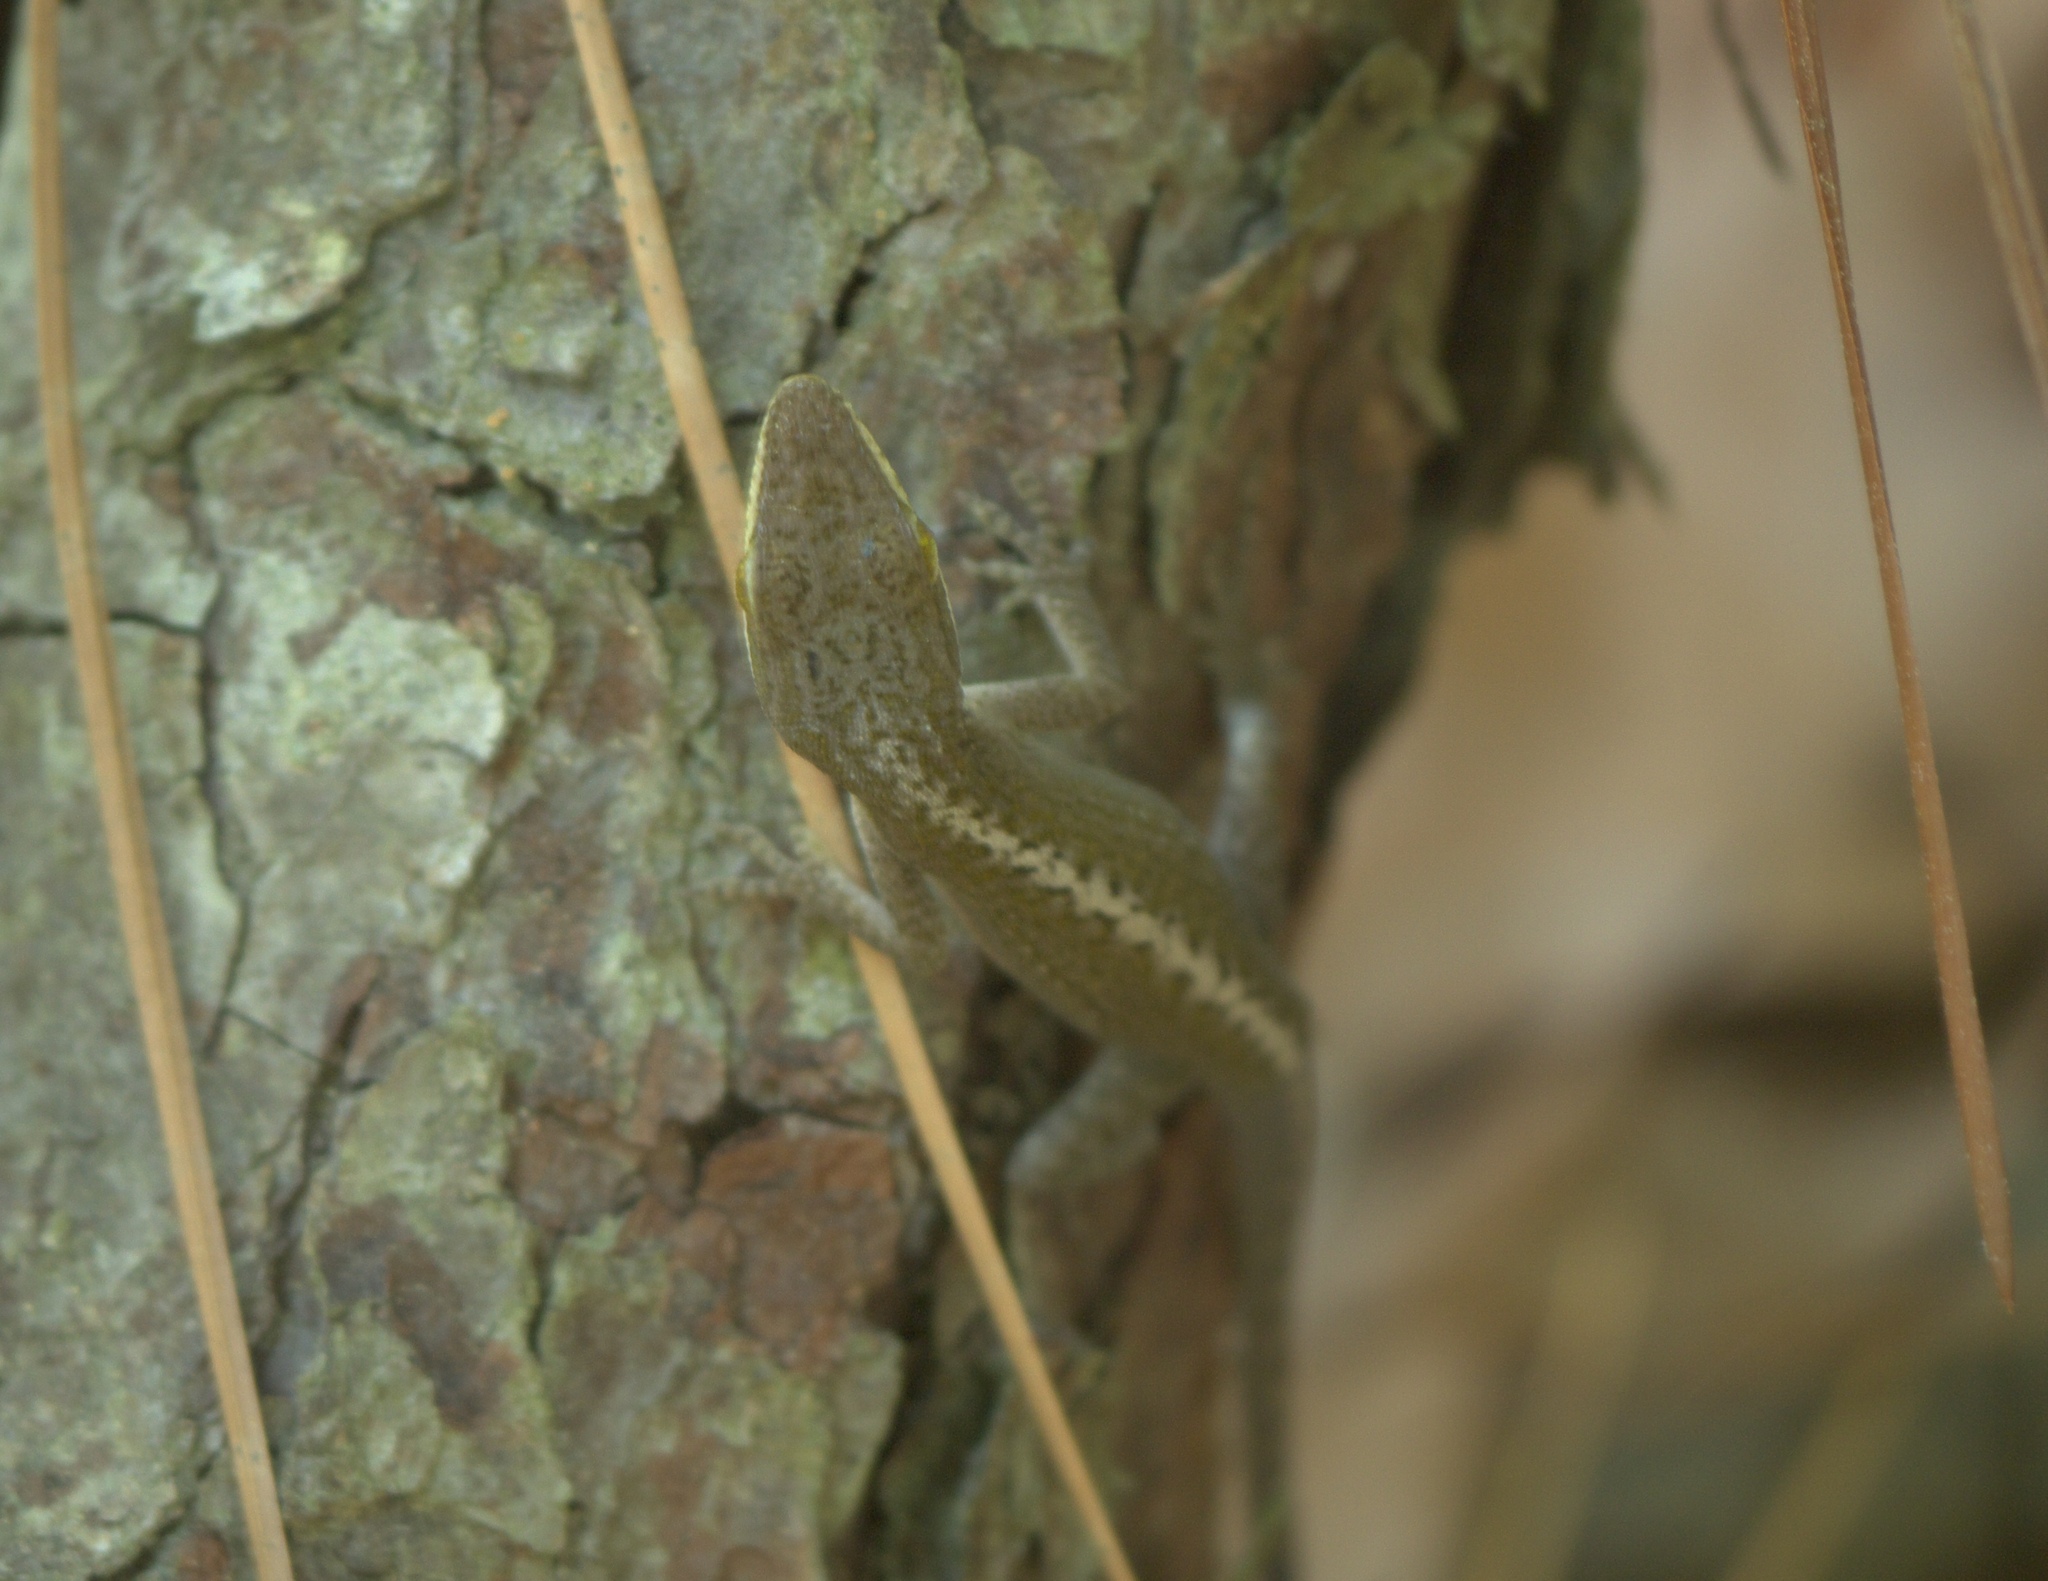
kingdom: Animalia
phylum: Chordata
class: Squamata
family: Dactyloidae
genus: Anolis
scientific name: Anolis carolinensis
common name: Green anole
